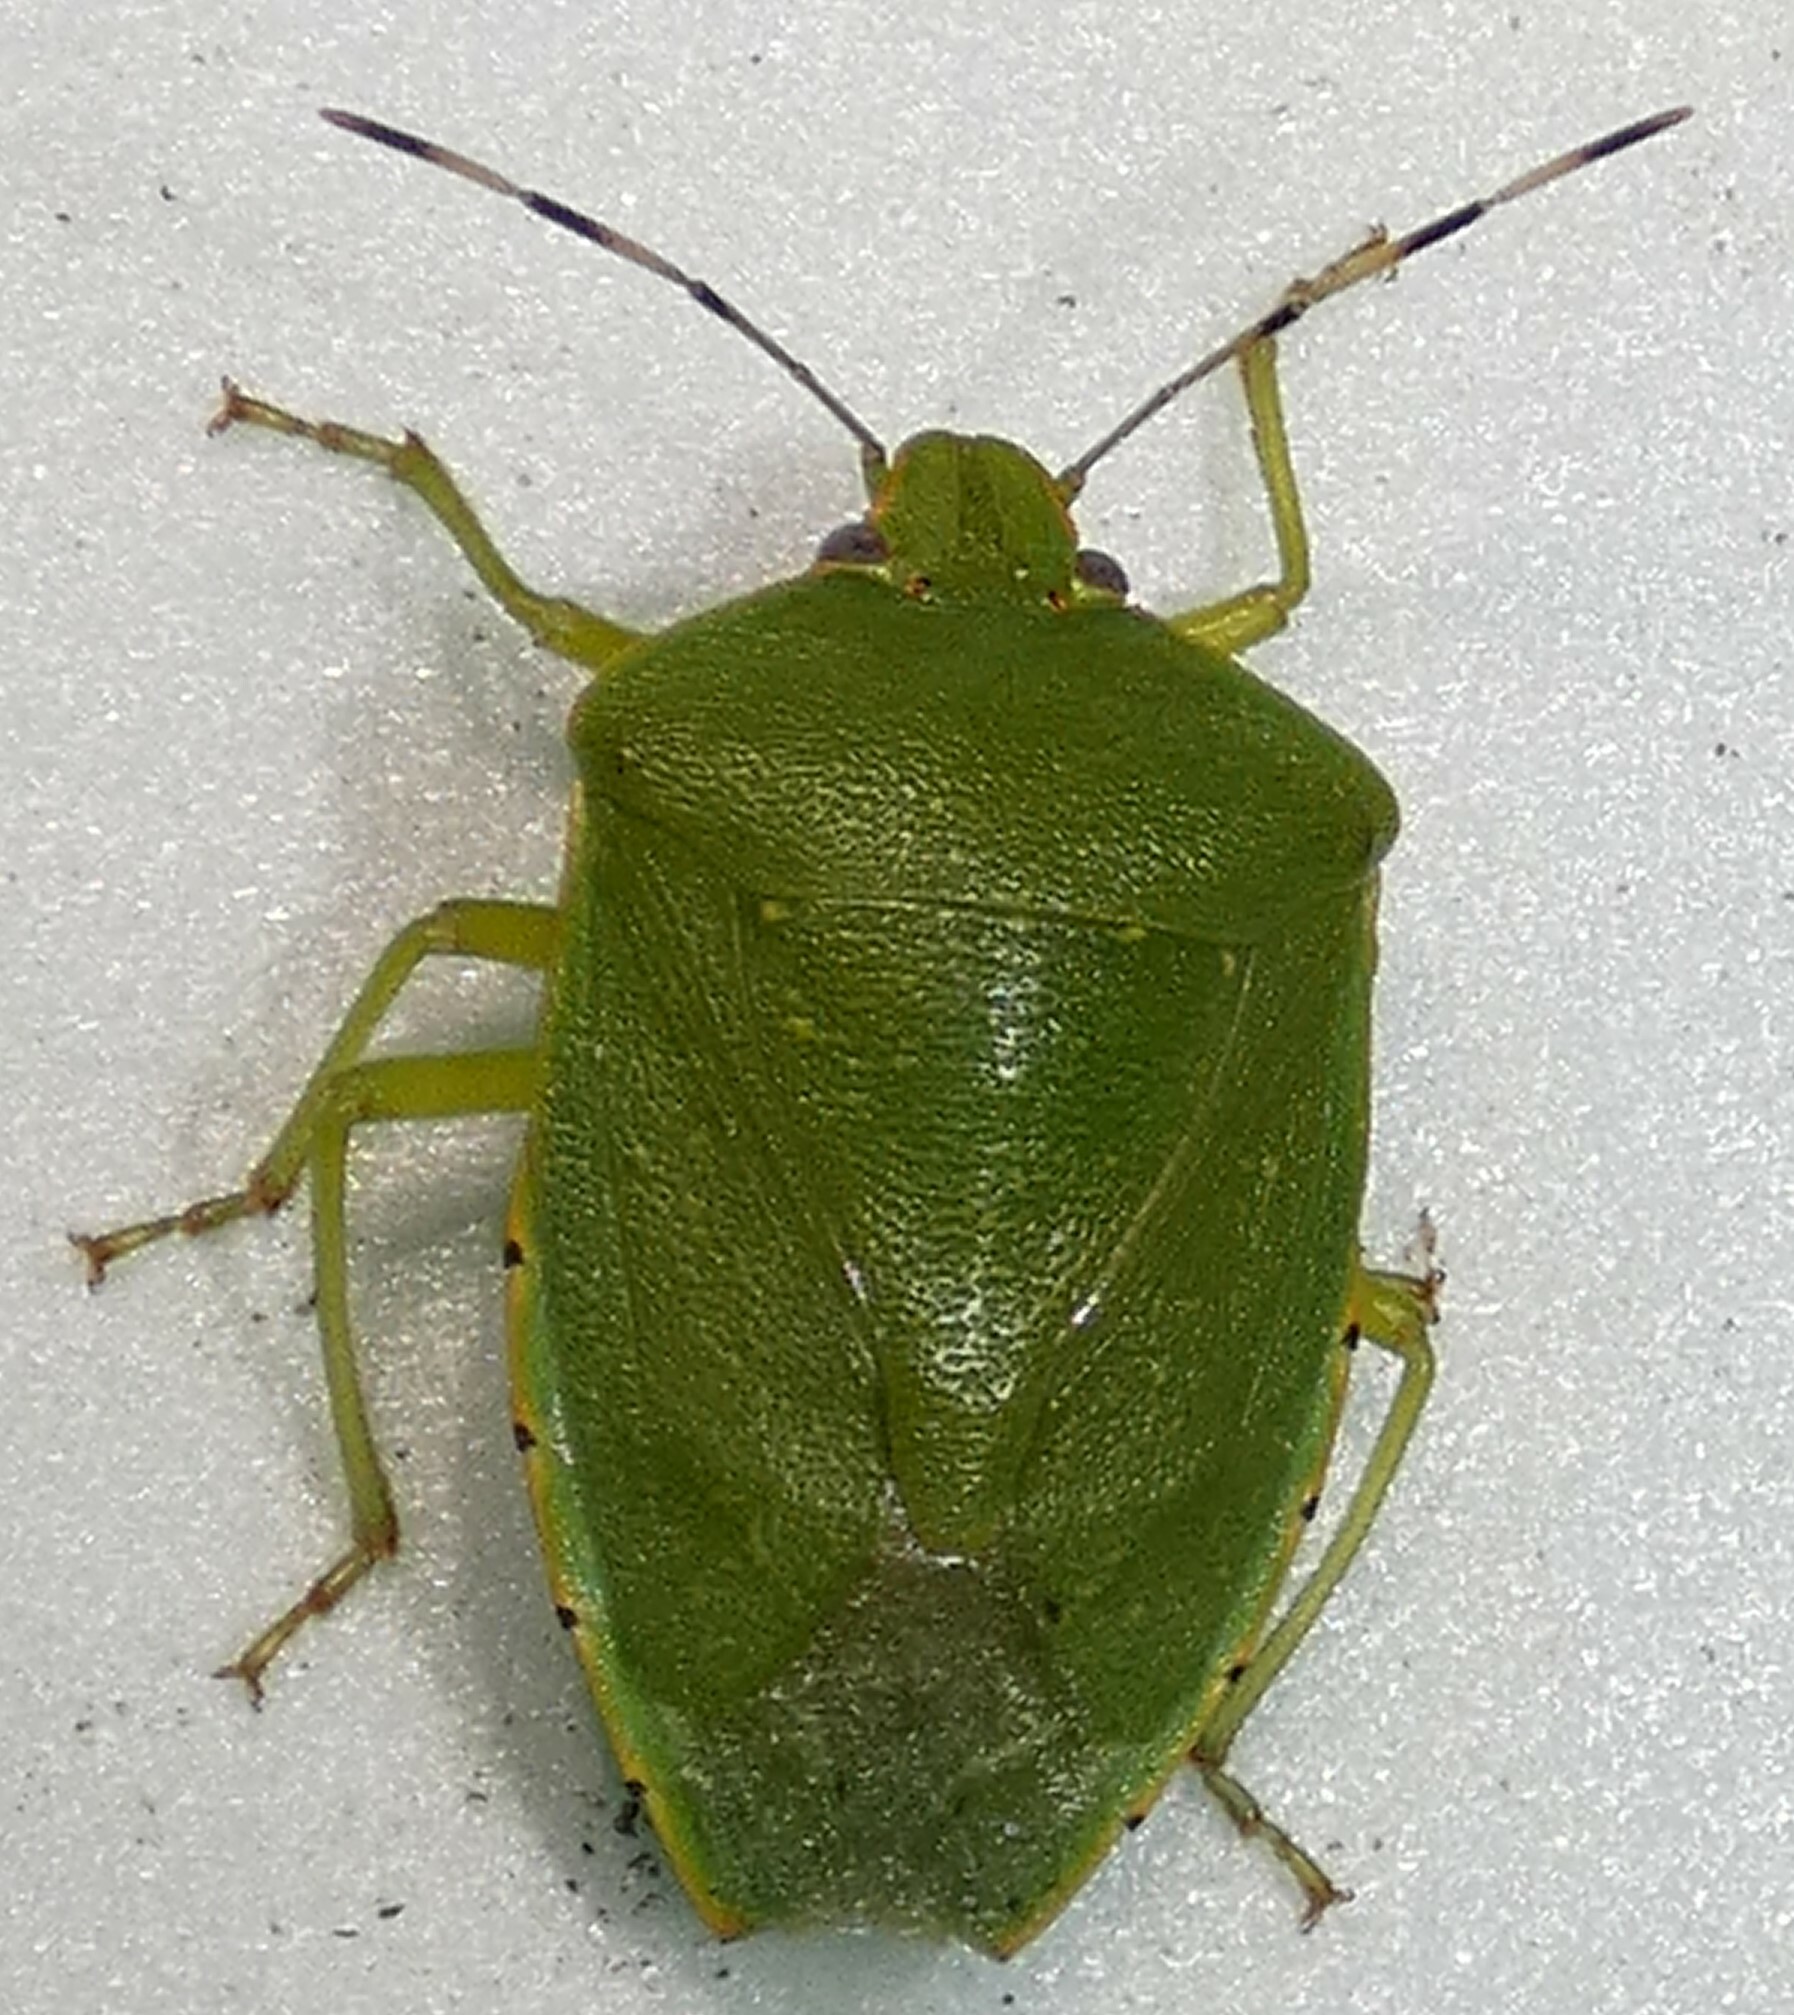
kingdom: Animalia
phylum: Arthropoda
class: Insecta
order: Hemiptera
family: Pentatomidae
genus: Chinavia
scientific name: Chinavia hilaris
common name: Green stink bug
